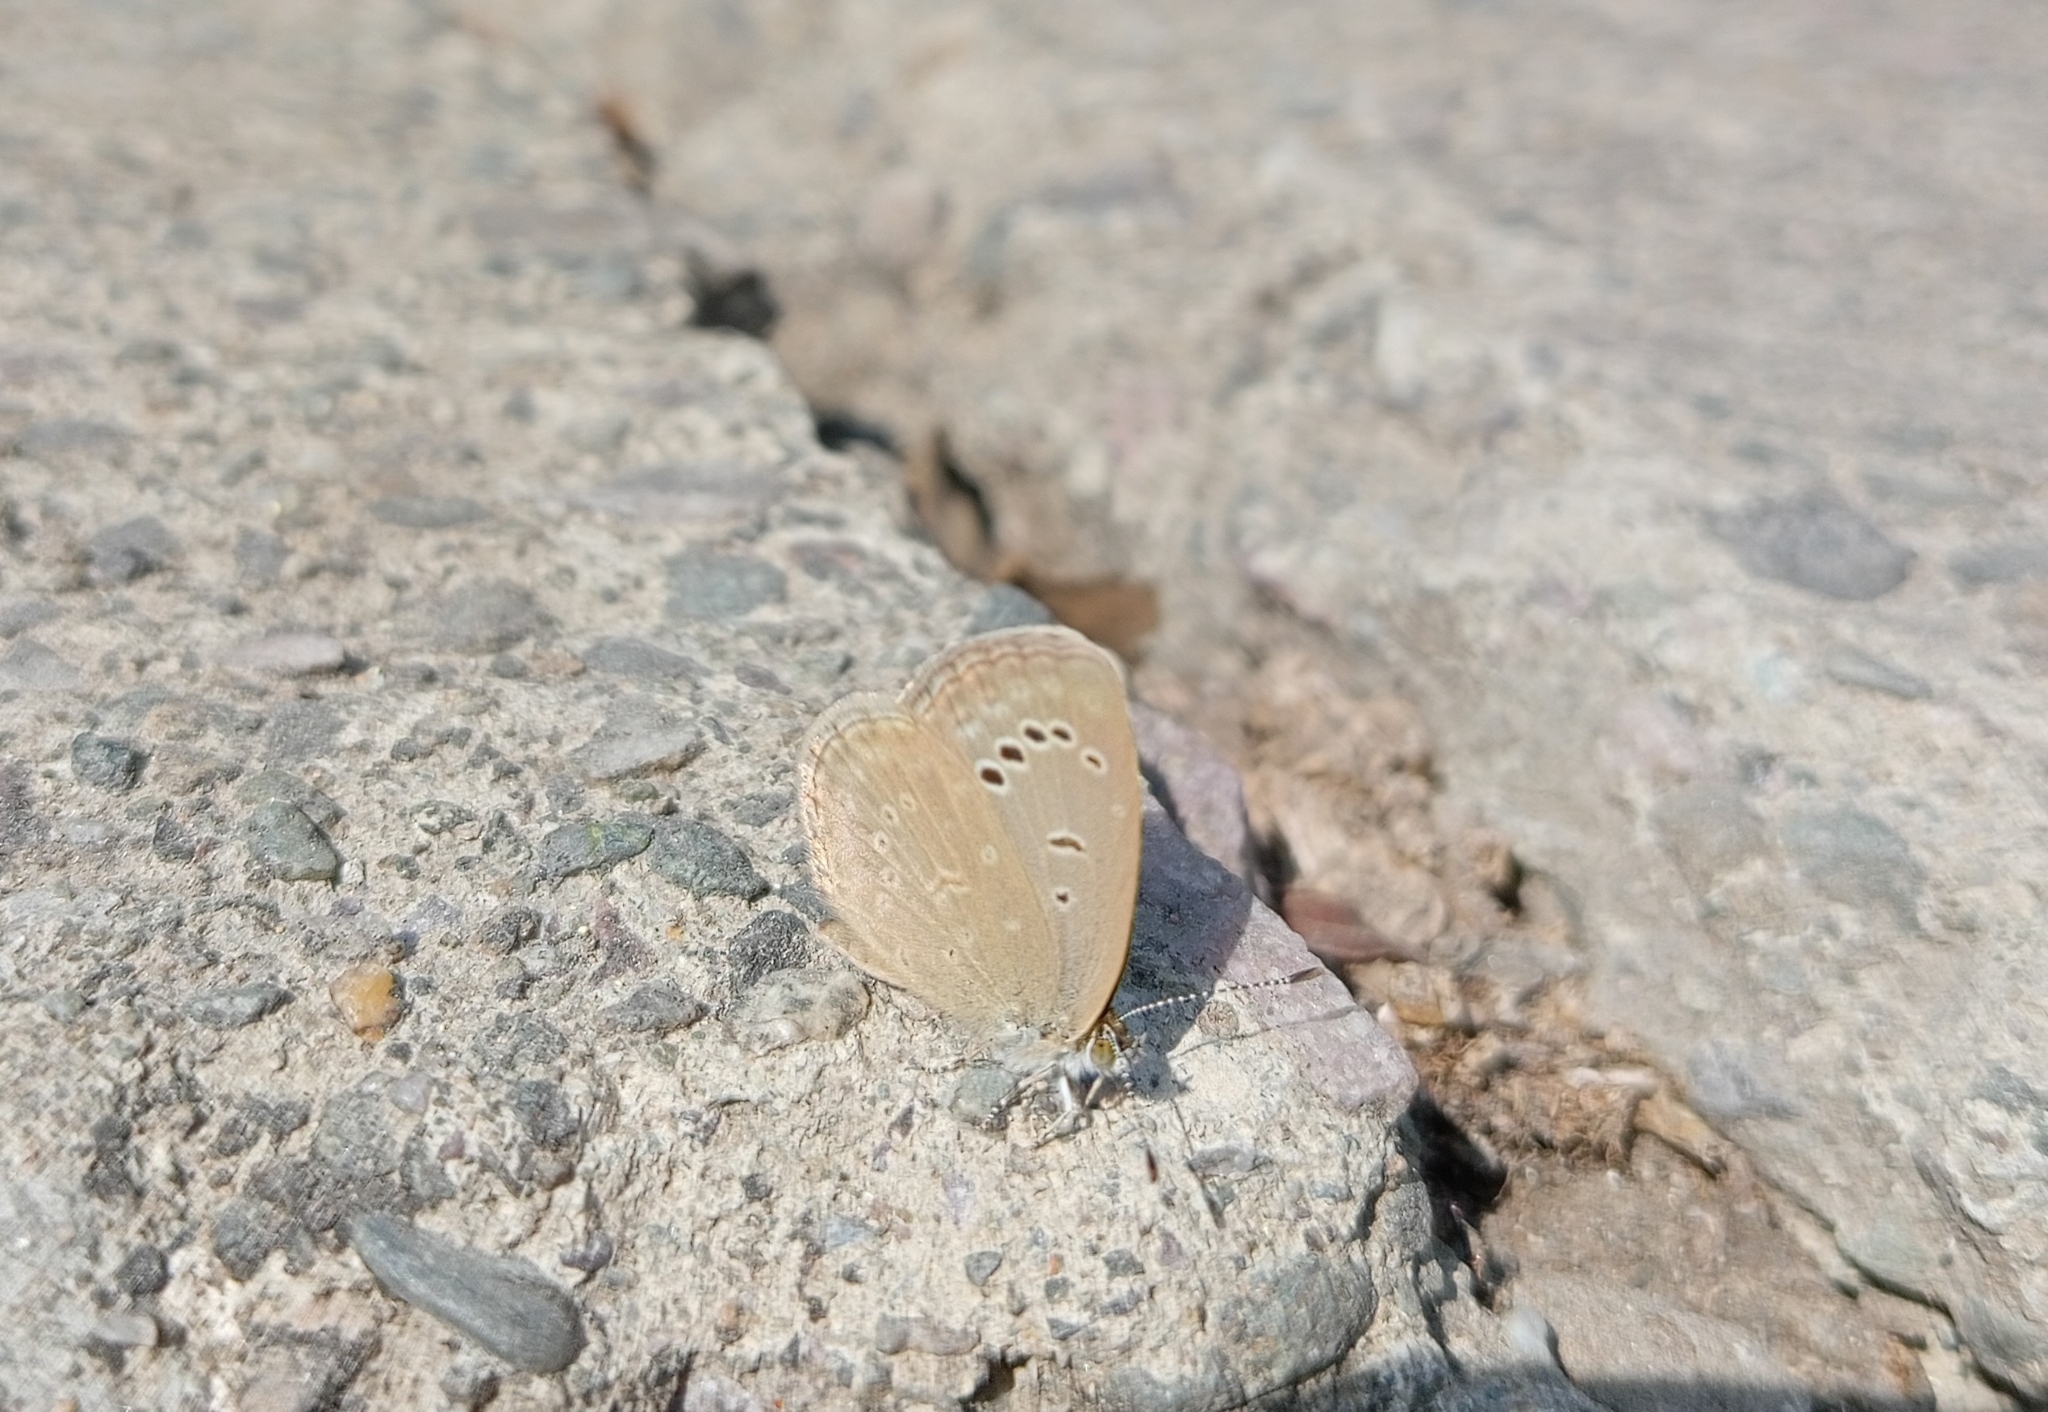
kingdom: Animalia
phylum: Arthropoda
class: Insecta
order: Lepidoptera
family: Lycaenidae
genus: Pseudozizeeria
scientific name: Pseudozizeeria maha
